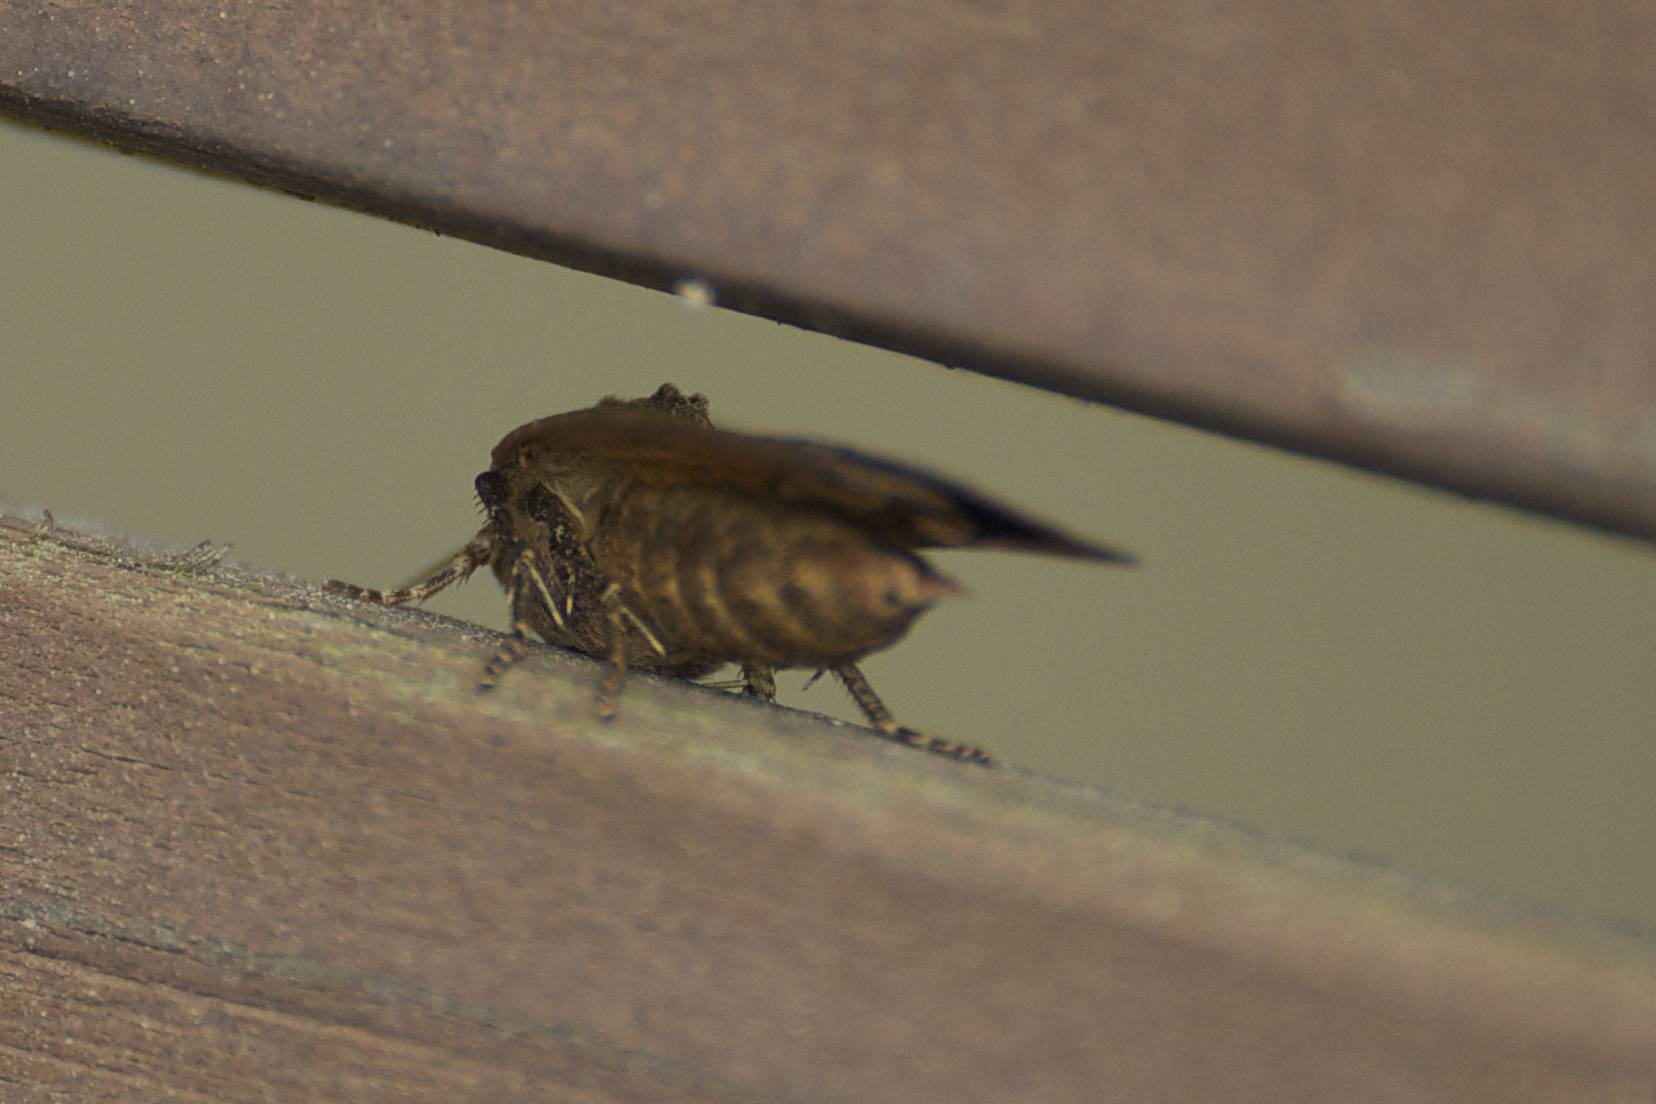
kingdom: Animalia
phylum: Arthropoda
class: Insecta
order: Lepidoptera
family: Noctuidae
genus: Noctua
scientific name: Noctua pronuba
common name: Large yellow underwing
